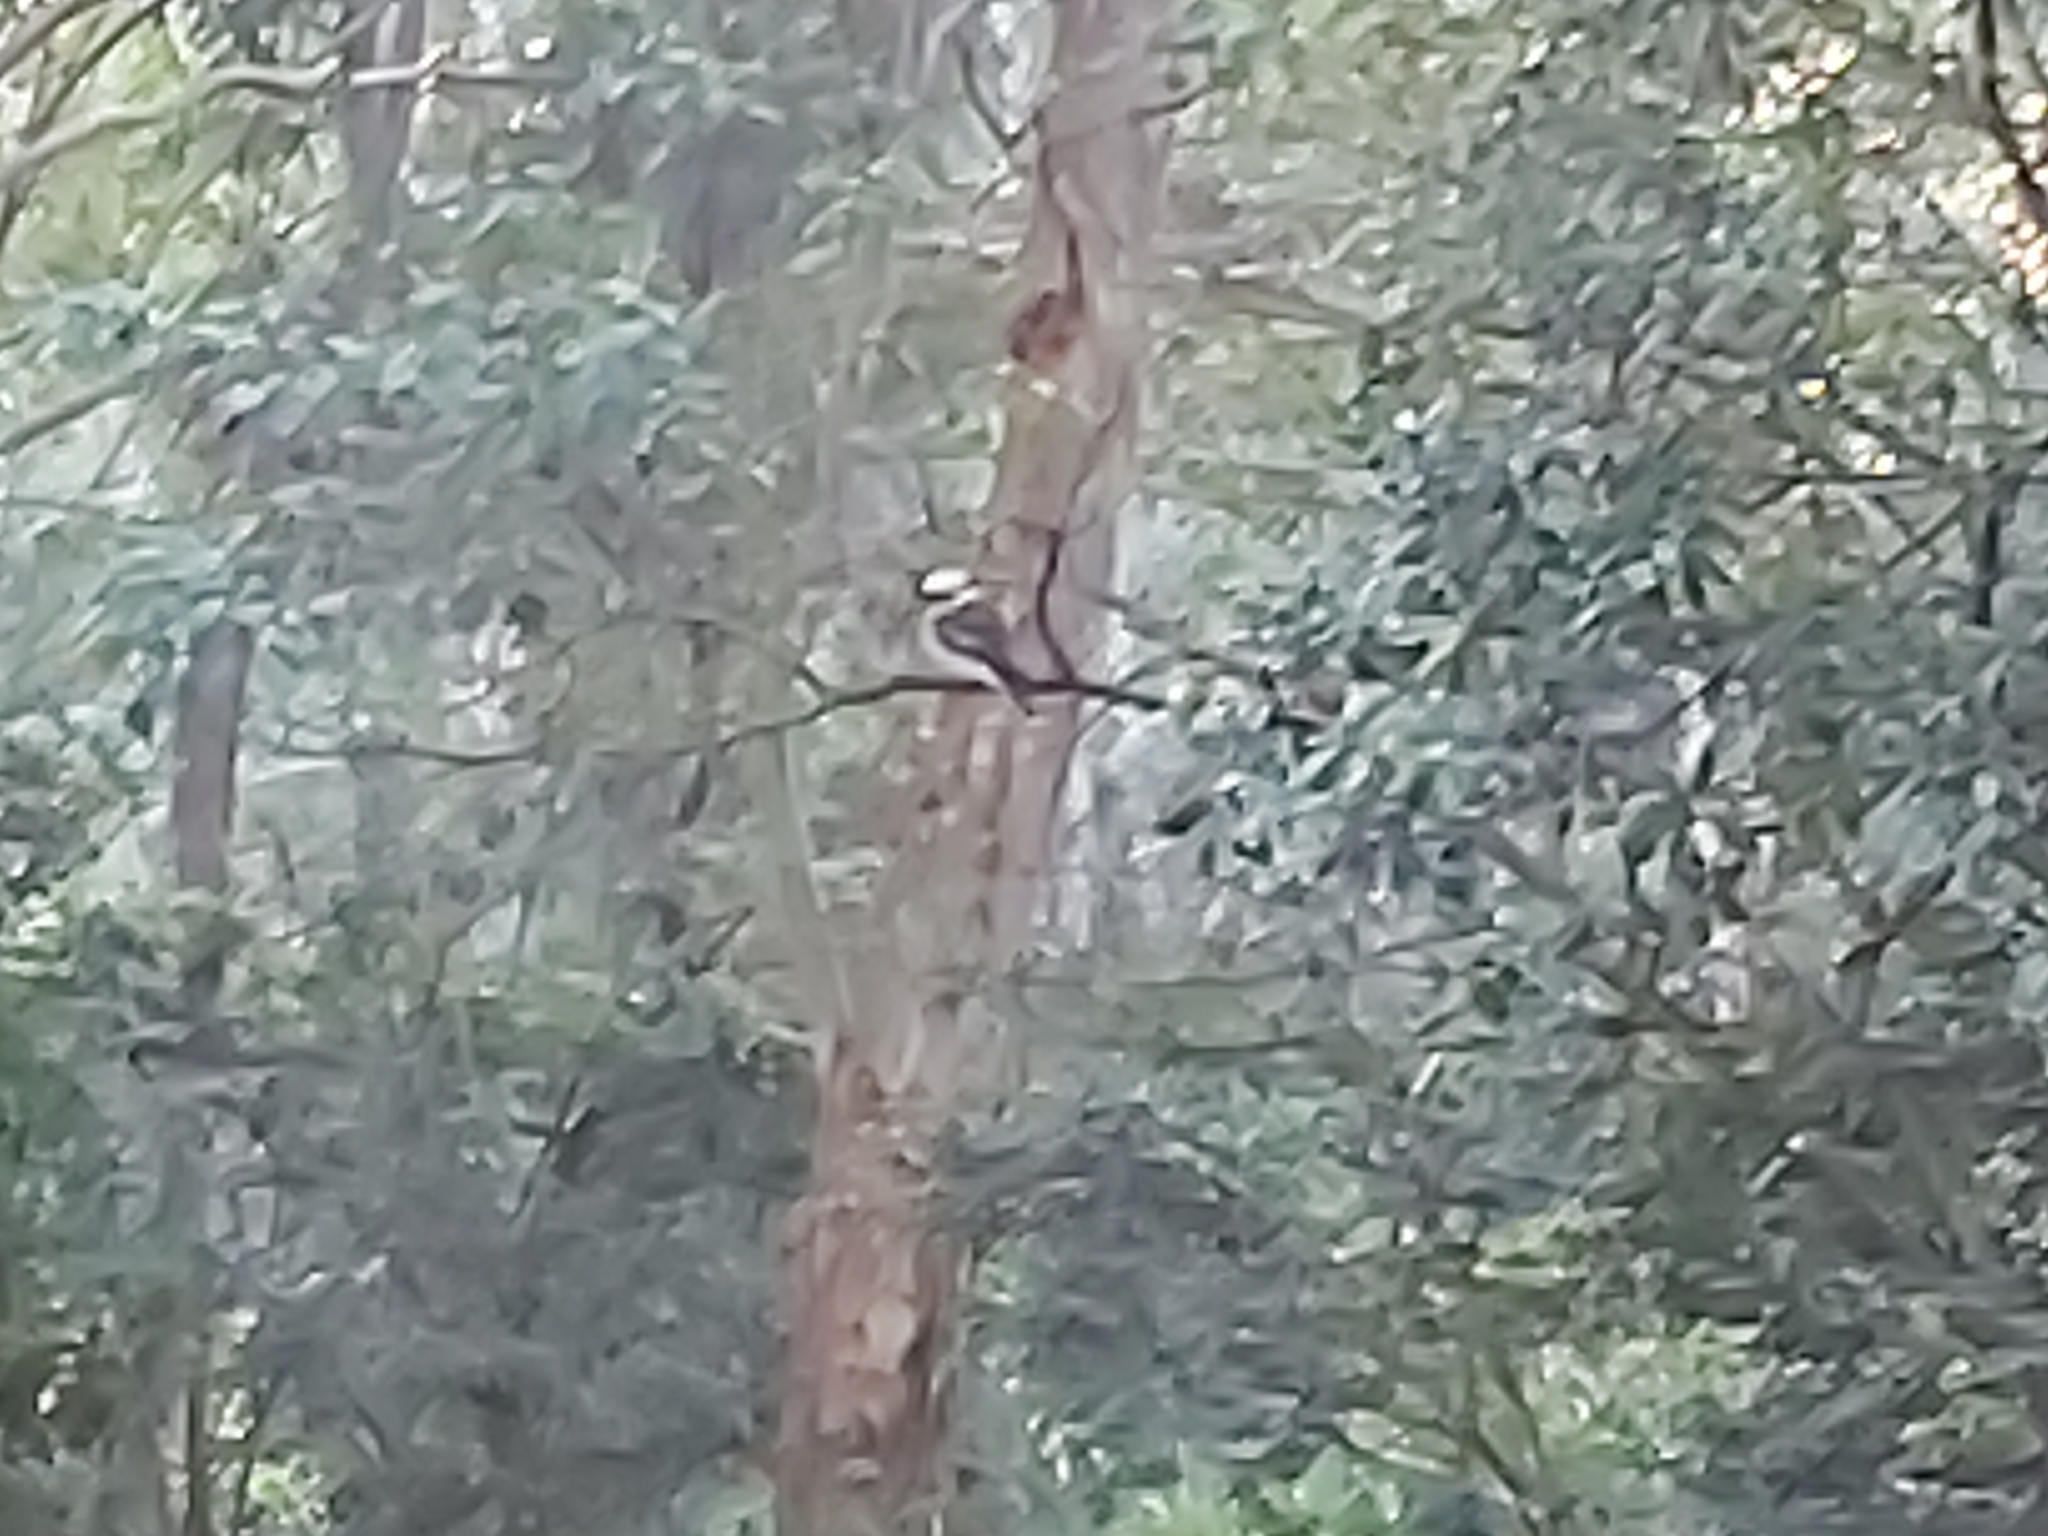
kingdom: Animalia
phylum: Chordata
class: Aves
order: Coraciiformes
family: Alcedinidae
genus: Dacelo
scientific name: Dacelo novaeguineae
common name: Laughing kookaburra
